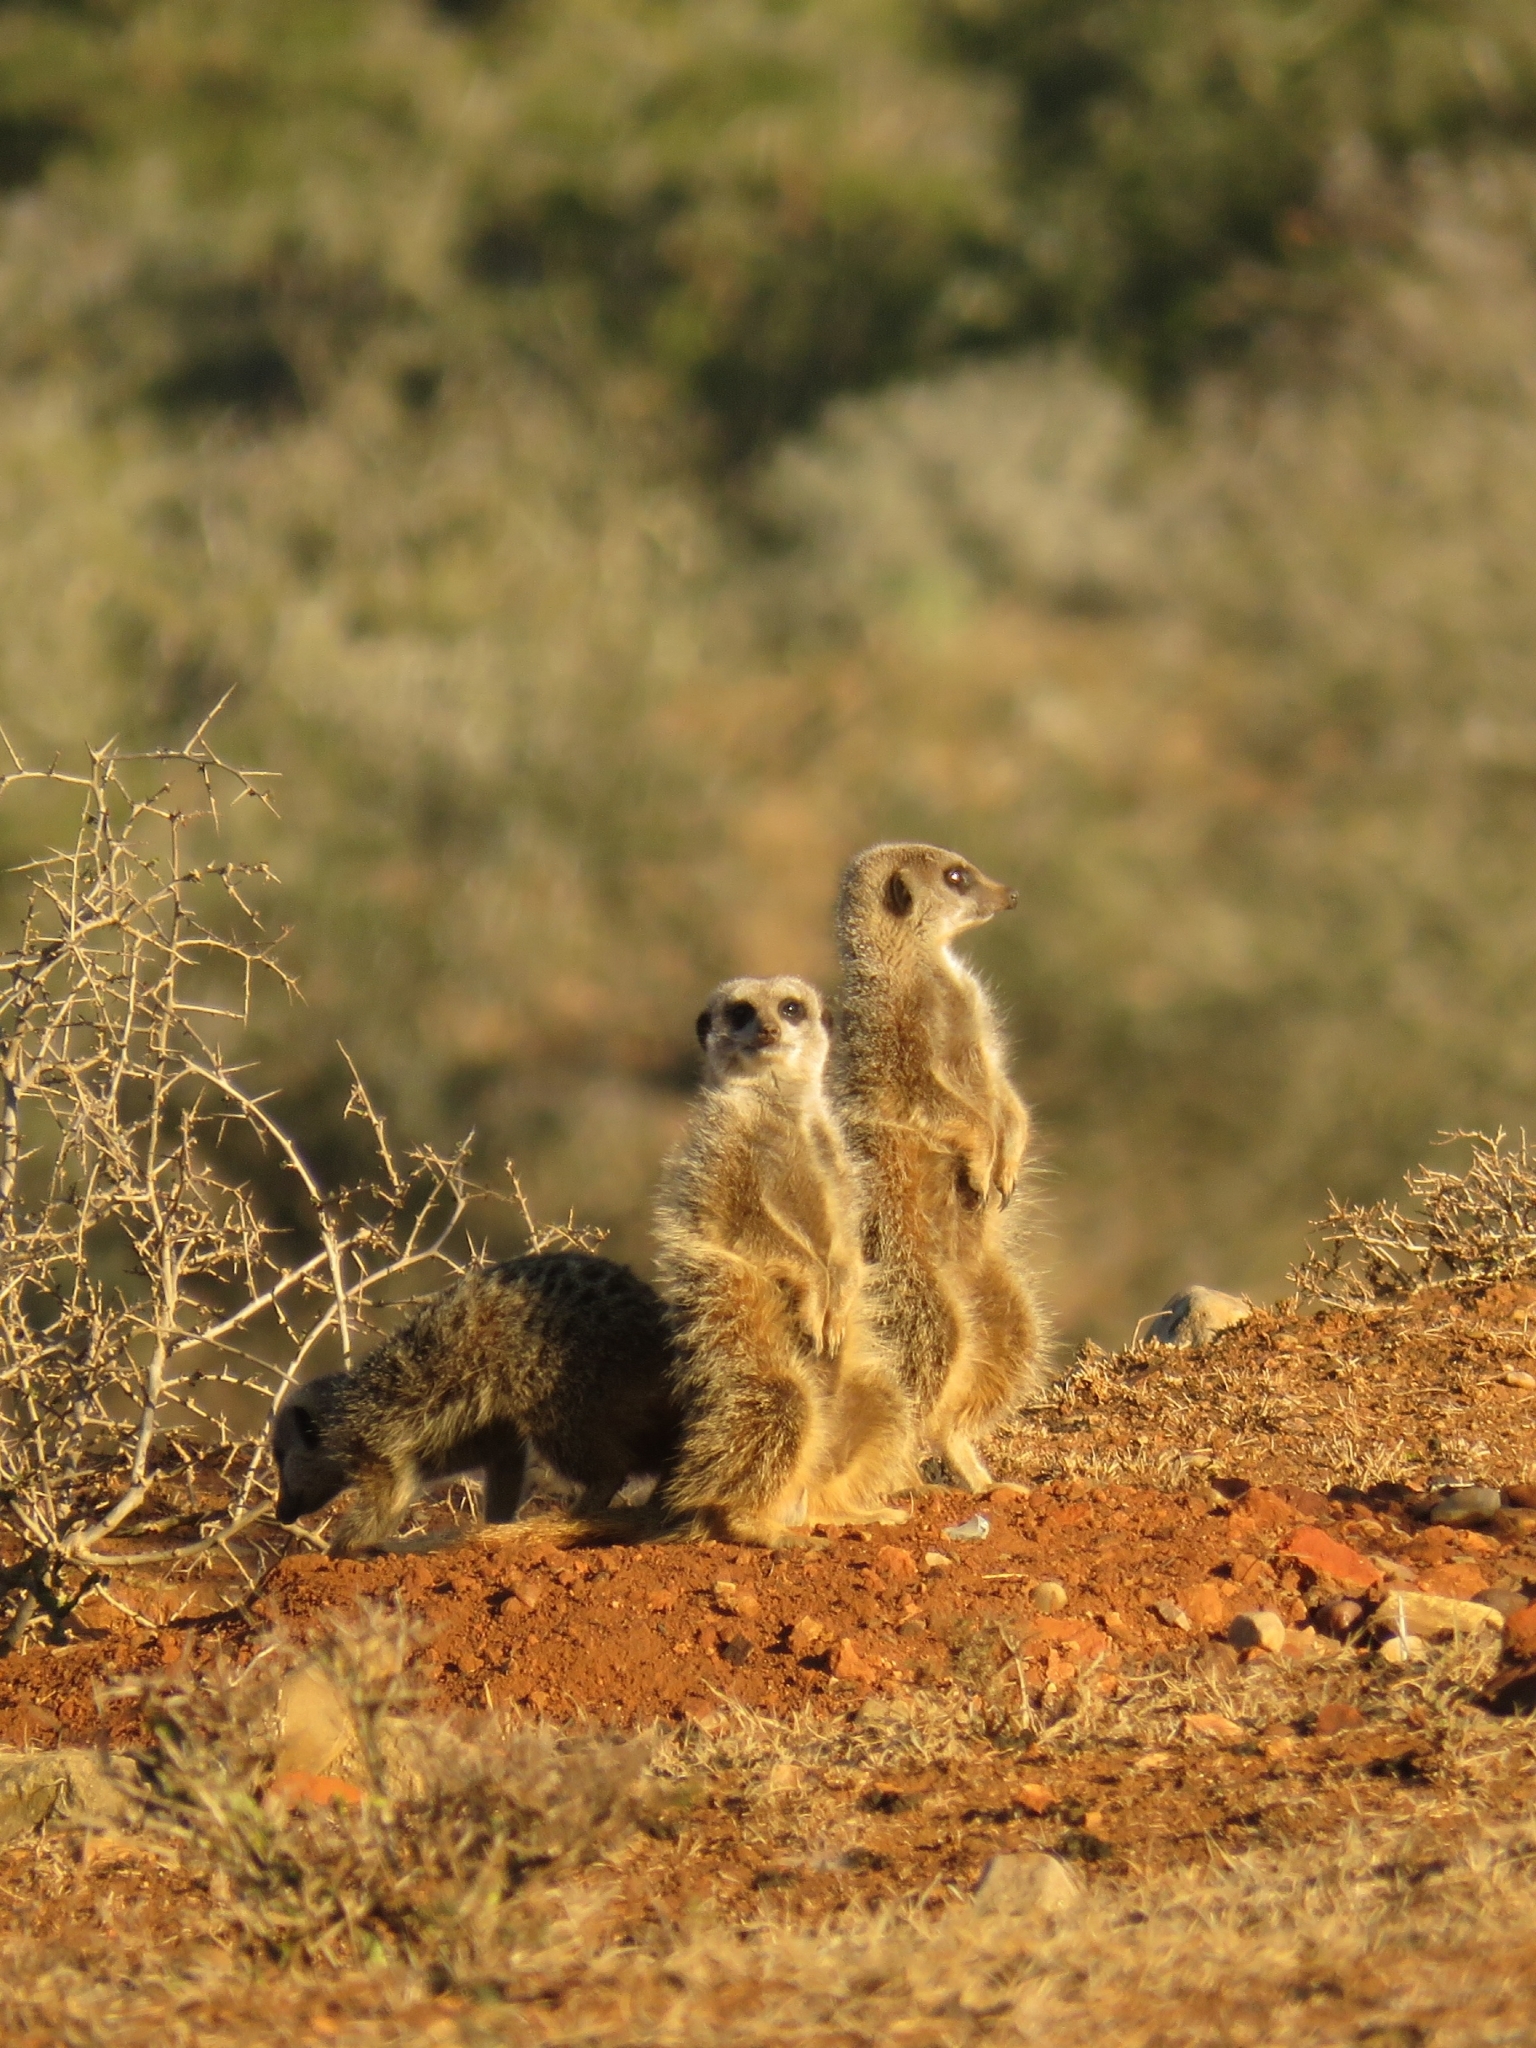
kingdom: Animalia
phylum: Chordata
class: Mammalia
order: Carnivora
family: Herpestidae
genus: Suricata
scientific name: Suricata suricatta
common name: Meerkat
